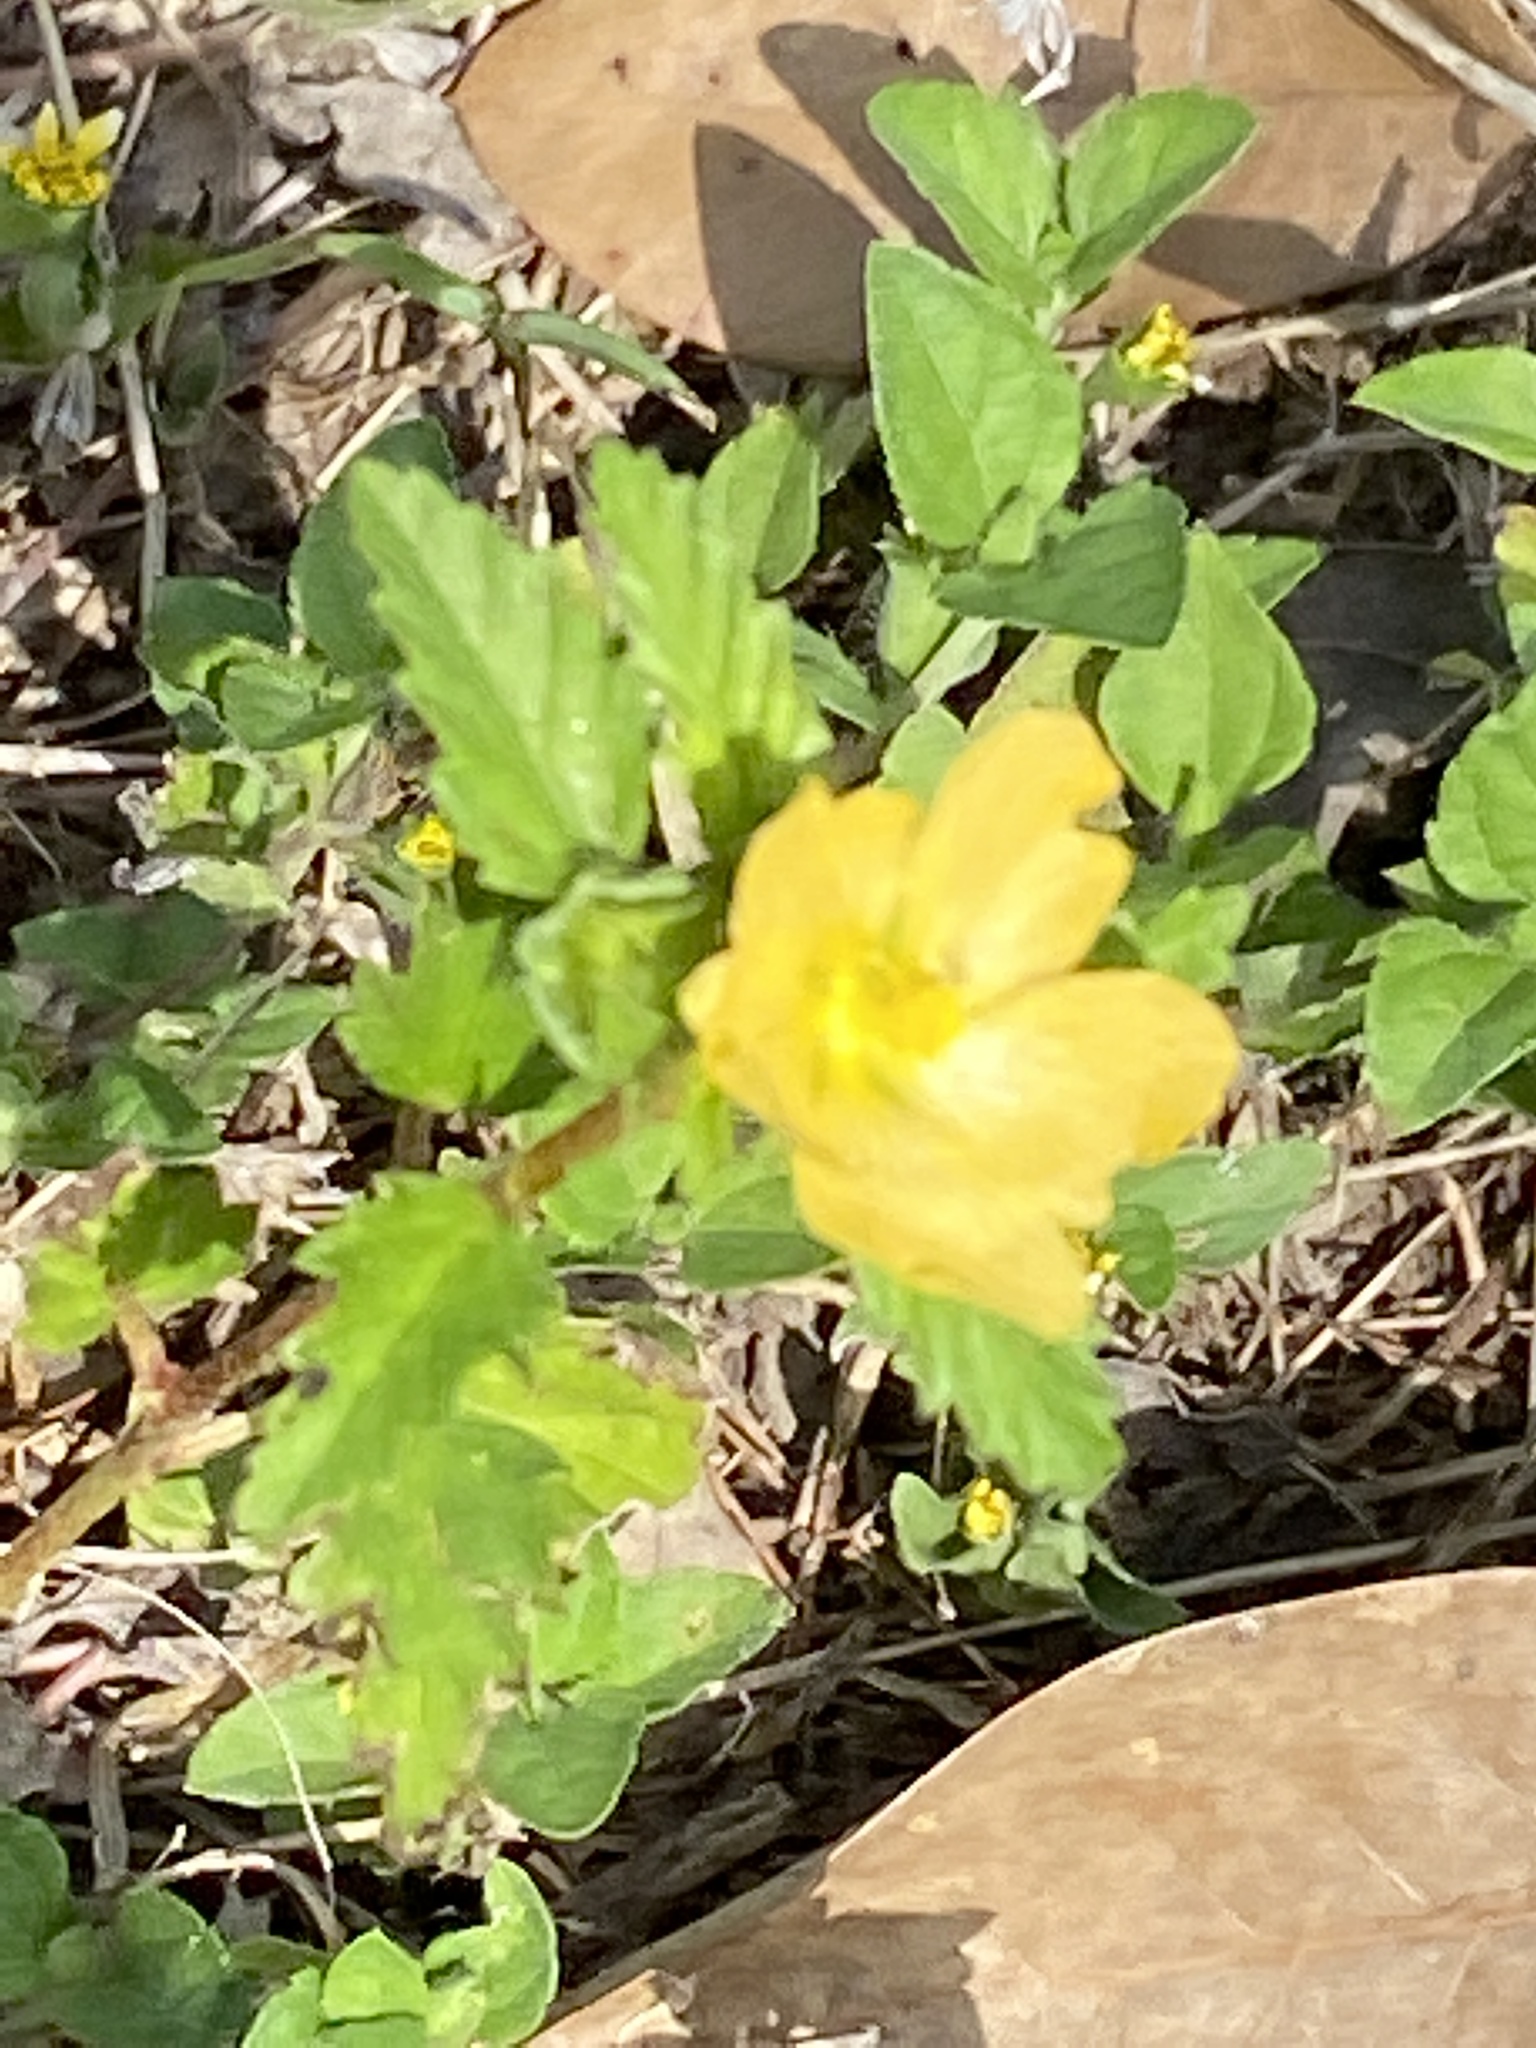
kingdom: Plantae
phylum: Tracheophyta
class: Magnoliopsida
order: Malvales
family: Malvaceae
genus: Malvastrum
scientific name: Malvastrum coromandelianum
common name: Threelobe false mallow
